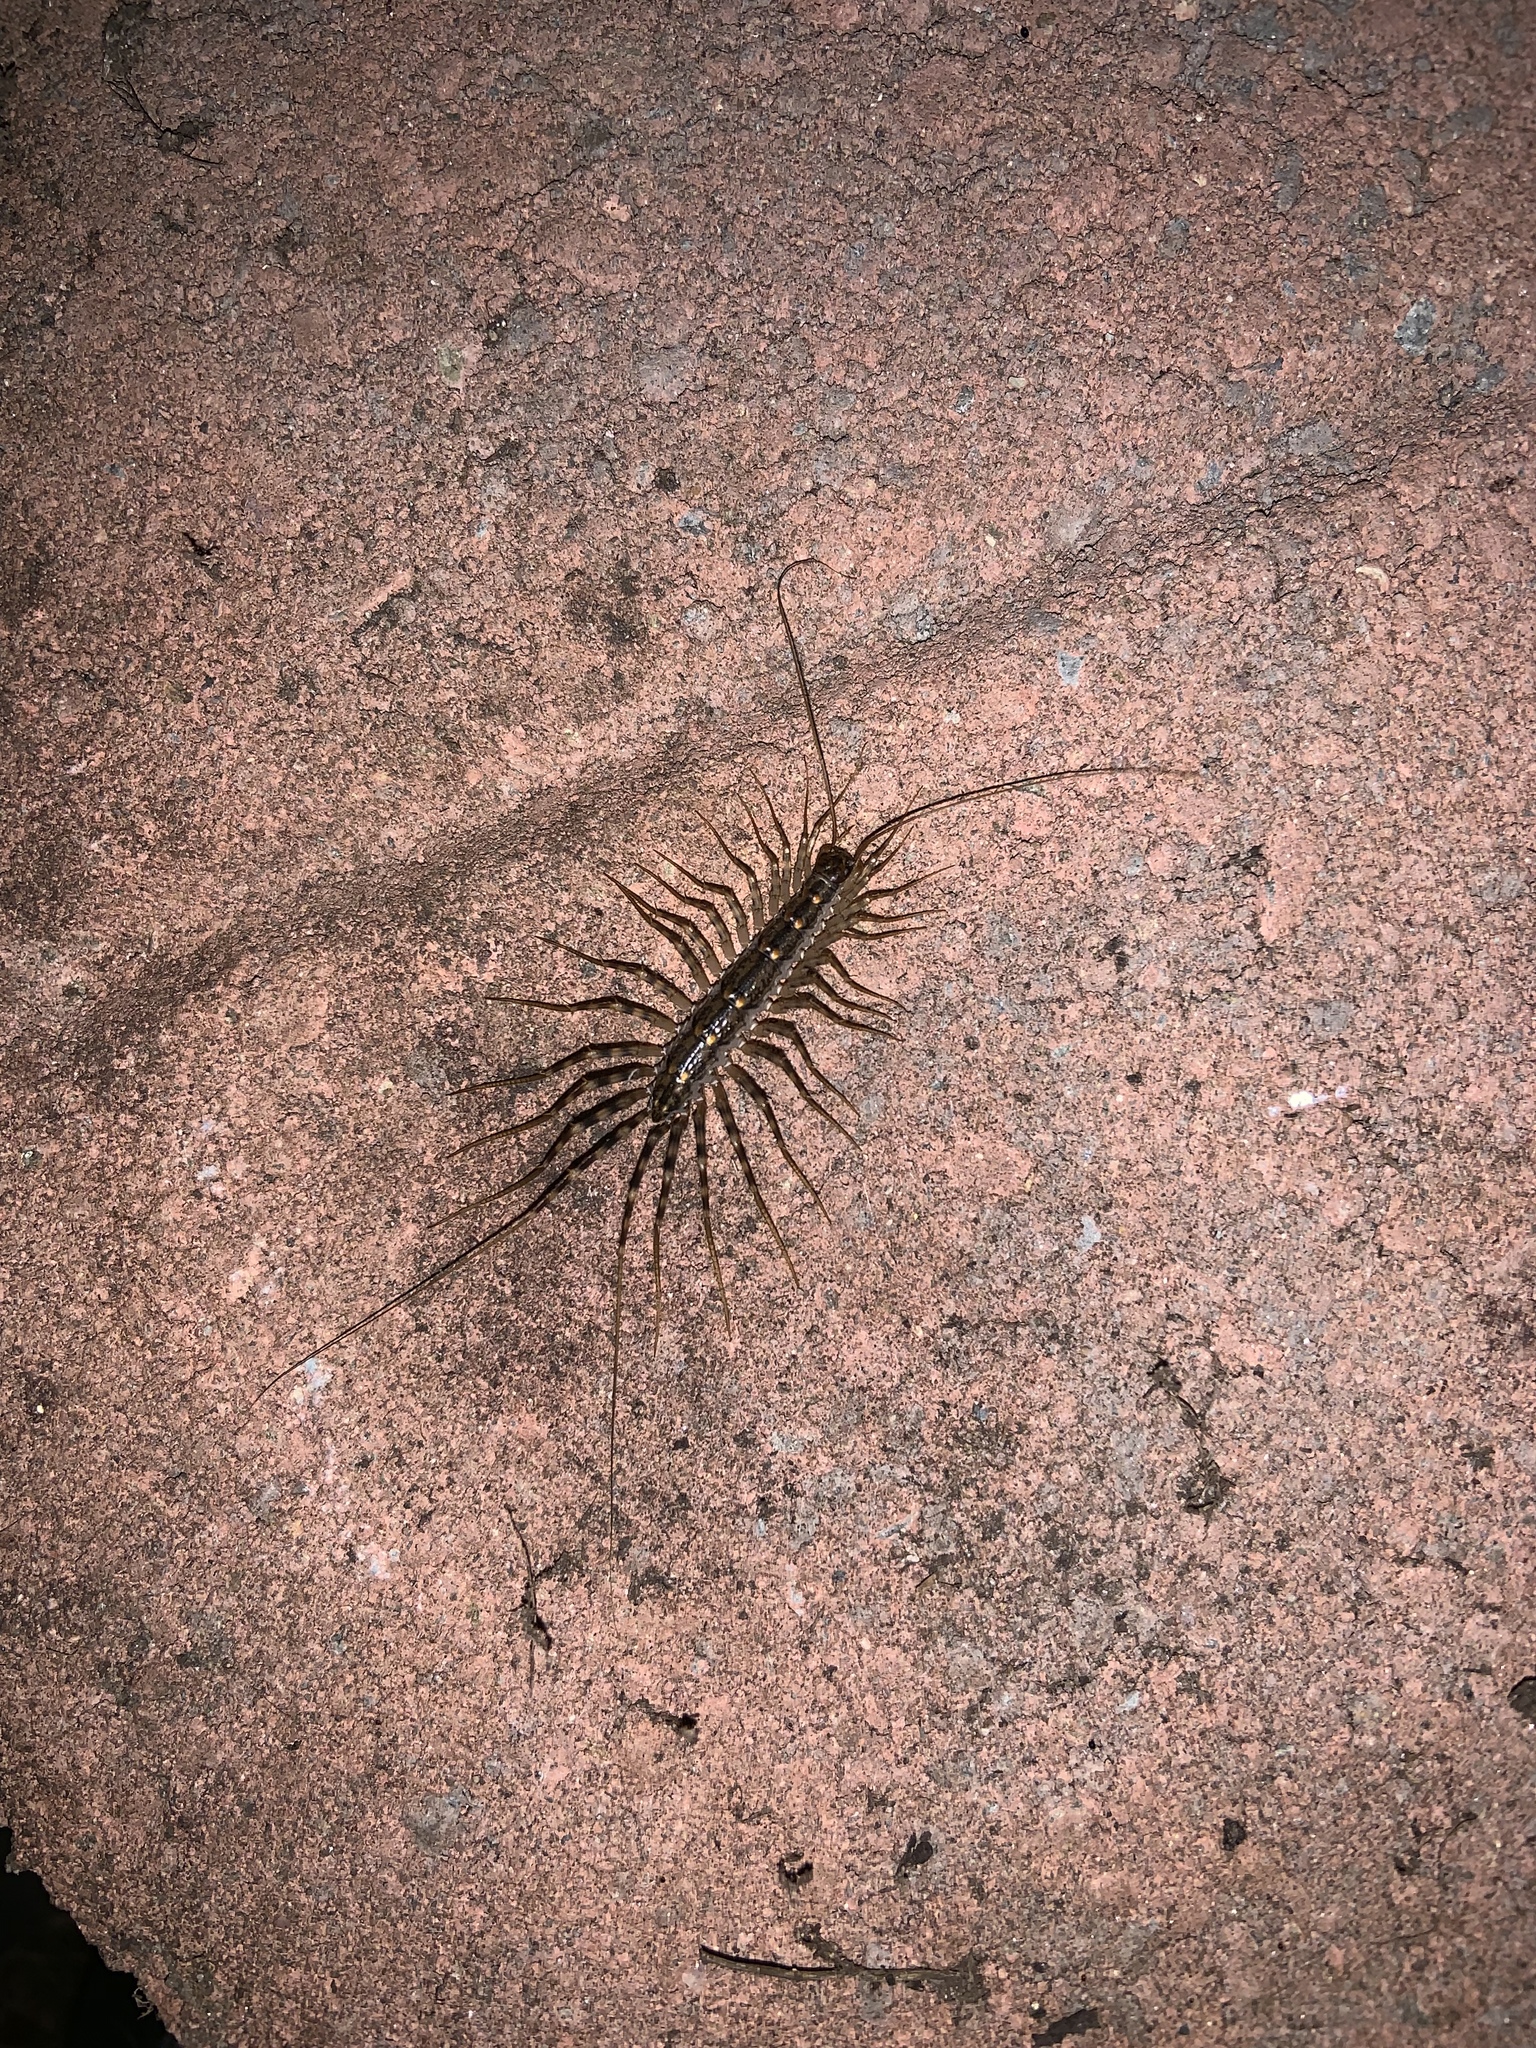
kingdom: Animalia
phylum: Arthropoda
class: Chilopoda
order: Scutigeromorpha
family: Scutigeridae
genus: Thereuonema
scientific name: Thereuonema tuberculata
